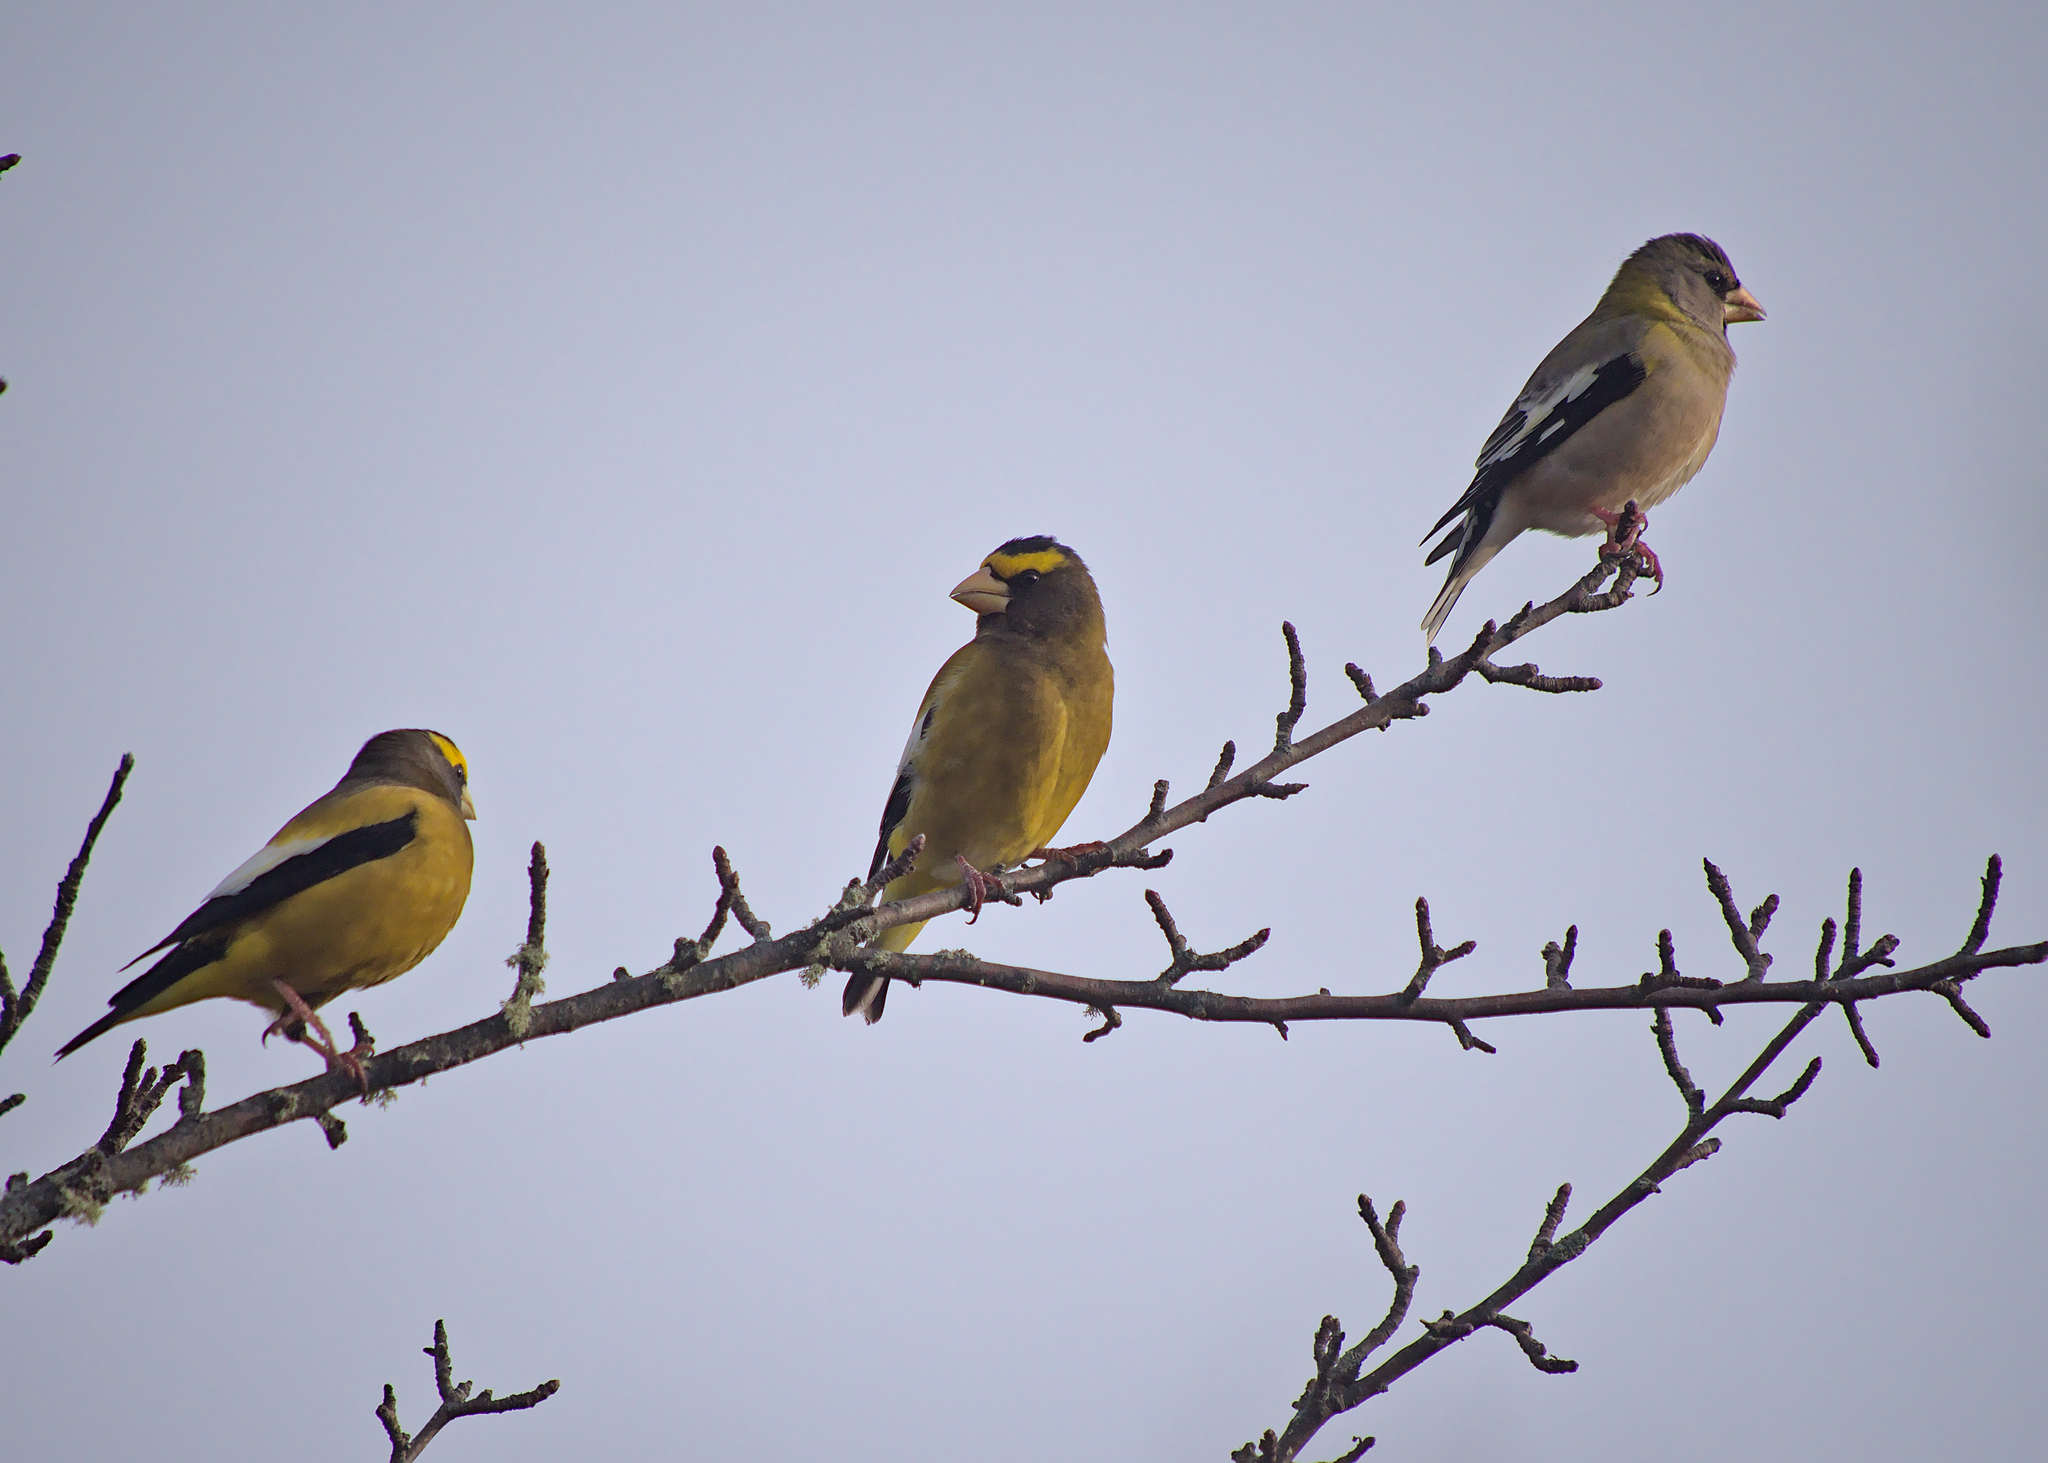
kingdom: Animalia
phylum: Chordata
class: Aves
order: Passeriformes
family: Fringillidae
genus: Hesperiphona
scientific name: Hesperiphona vespertina
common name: Evening grosbeak
